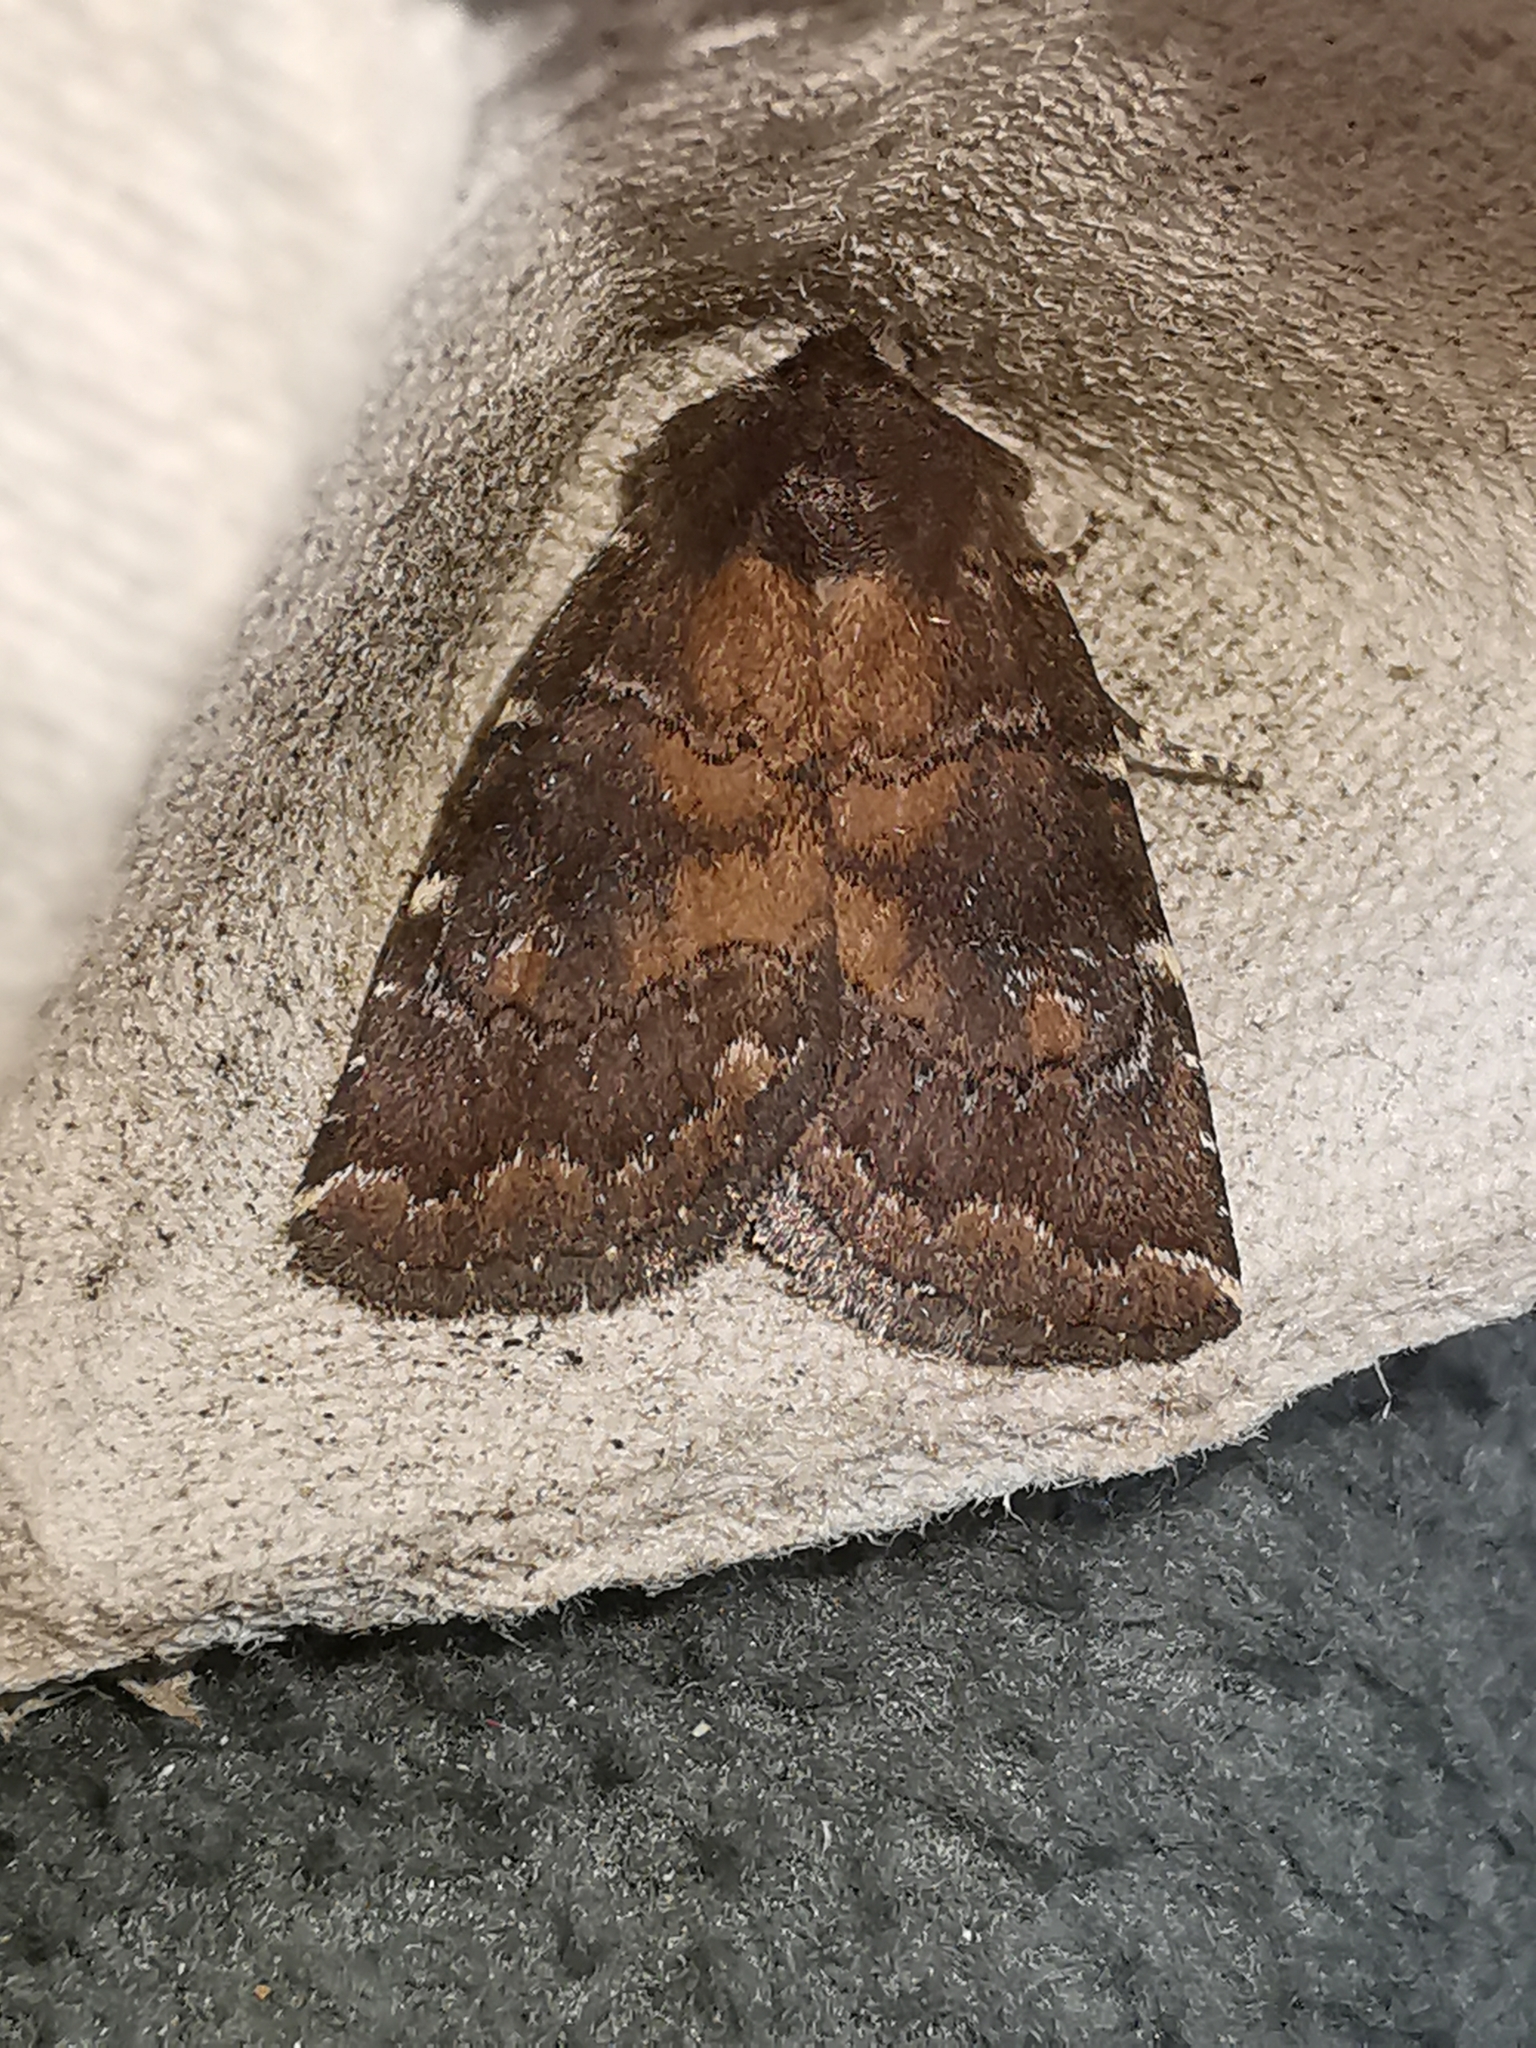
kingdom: Animalia
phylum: Arthropoda
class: Insecta
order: Lepidoptera
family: Noctuidae
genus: Charanyca
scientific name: Charanyca ferruginea
